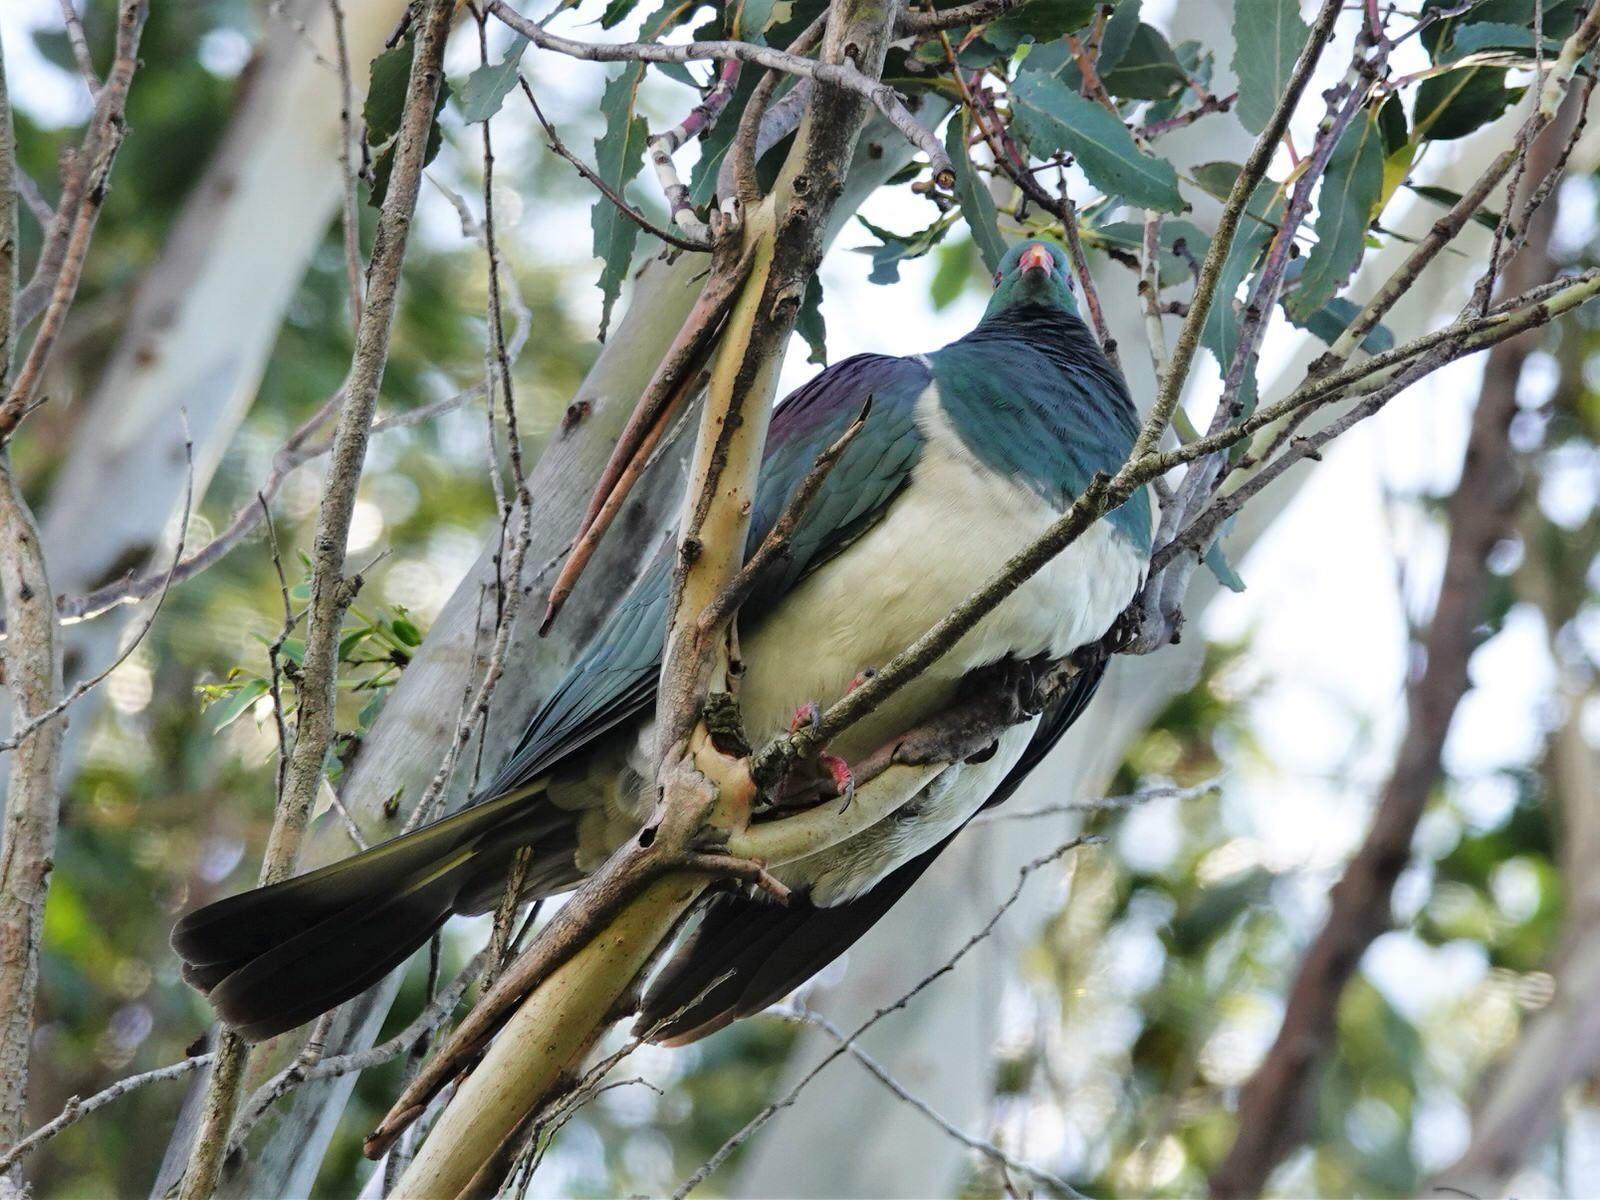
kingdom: Animalia
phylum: Chordata
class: Aves
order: Columbiformes
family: Columbidae
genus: Hemiphaga
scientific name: Hemiphaga novaeseelandiae
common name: New zealand pigeon
